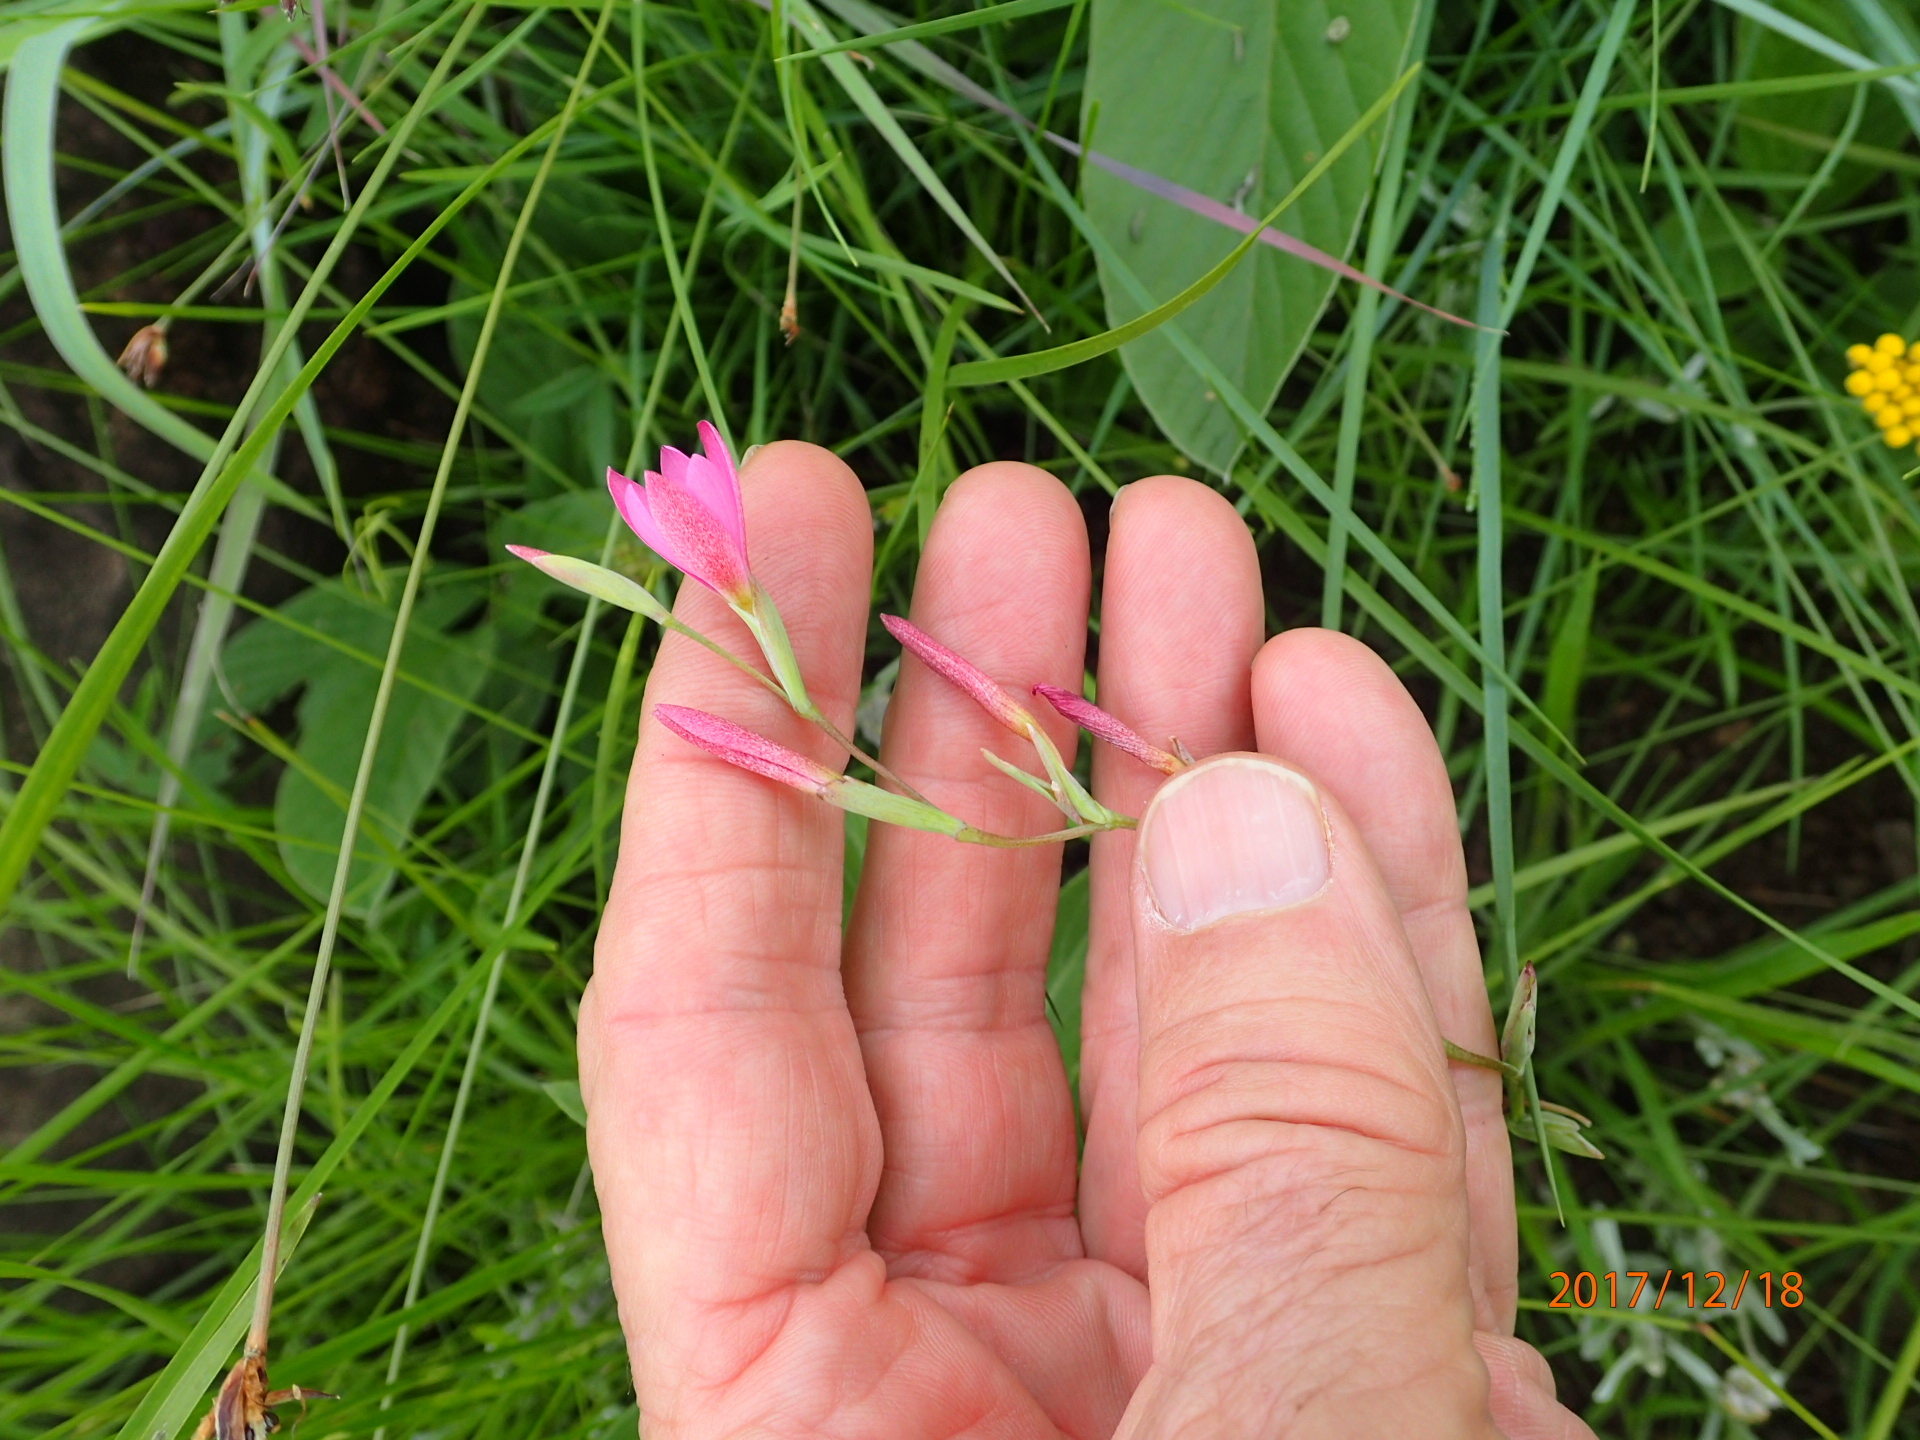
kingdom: Plantae
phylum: Tracheophyta
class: Liliopsida
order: Asparagales
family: Iridaceae
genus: Hesperantha
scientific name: Hesperantha baurii
